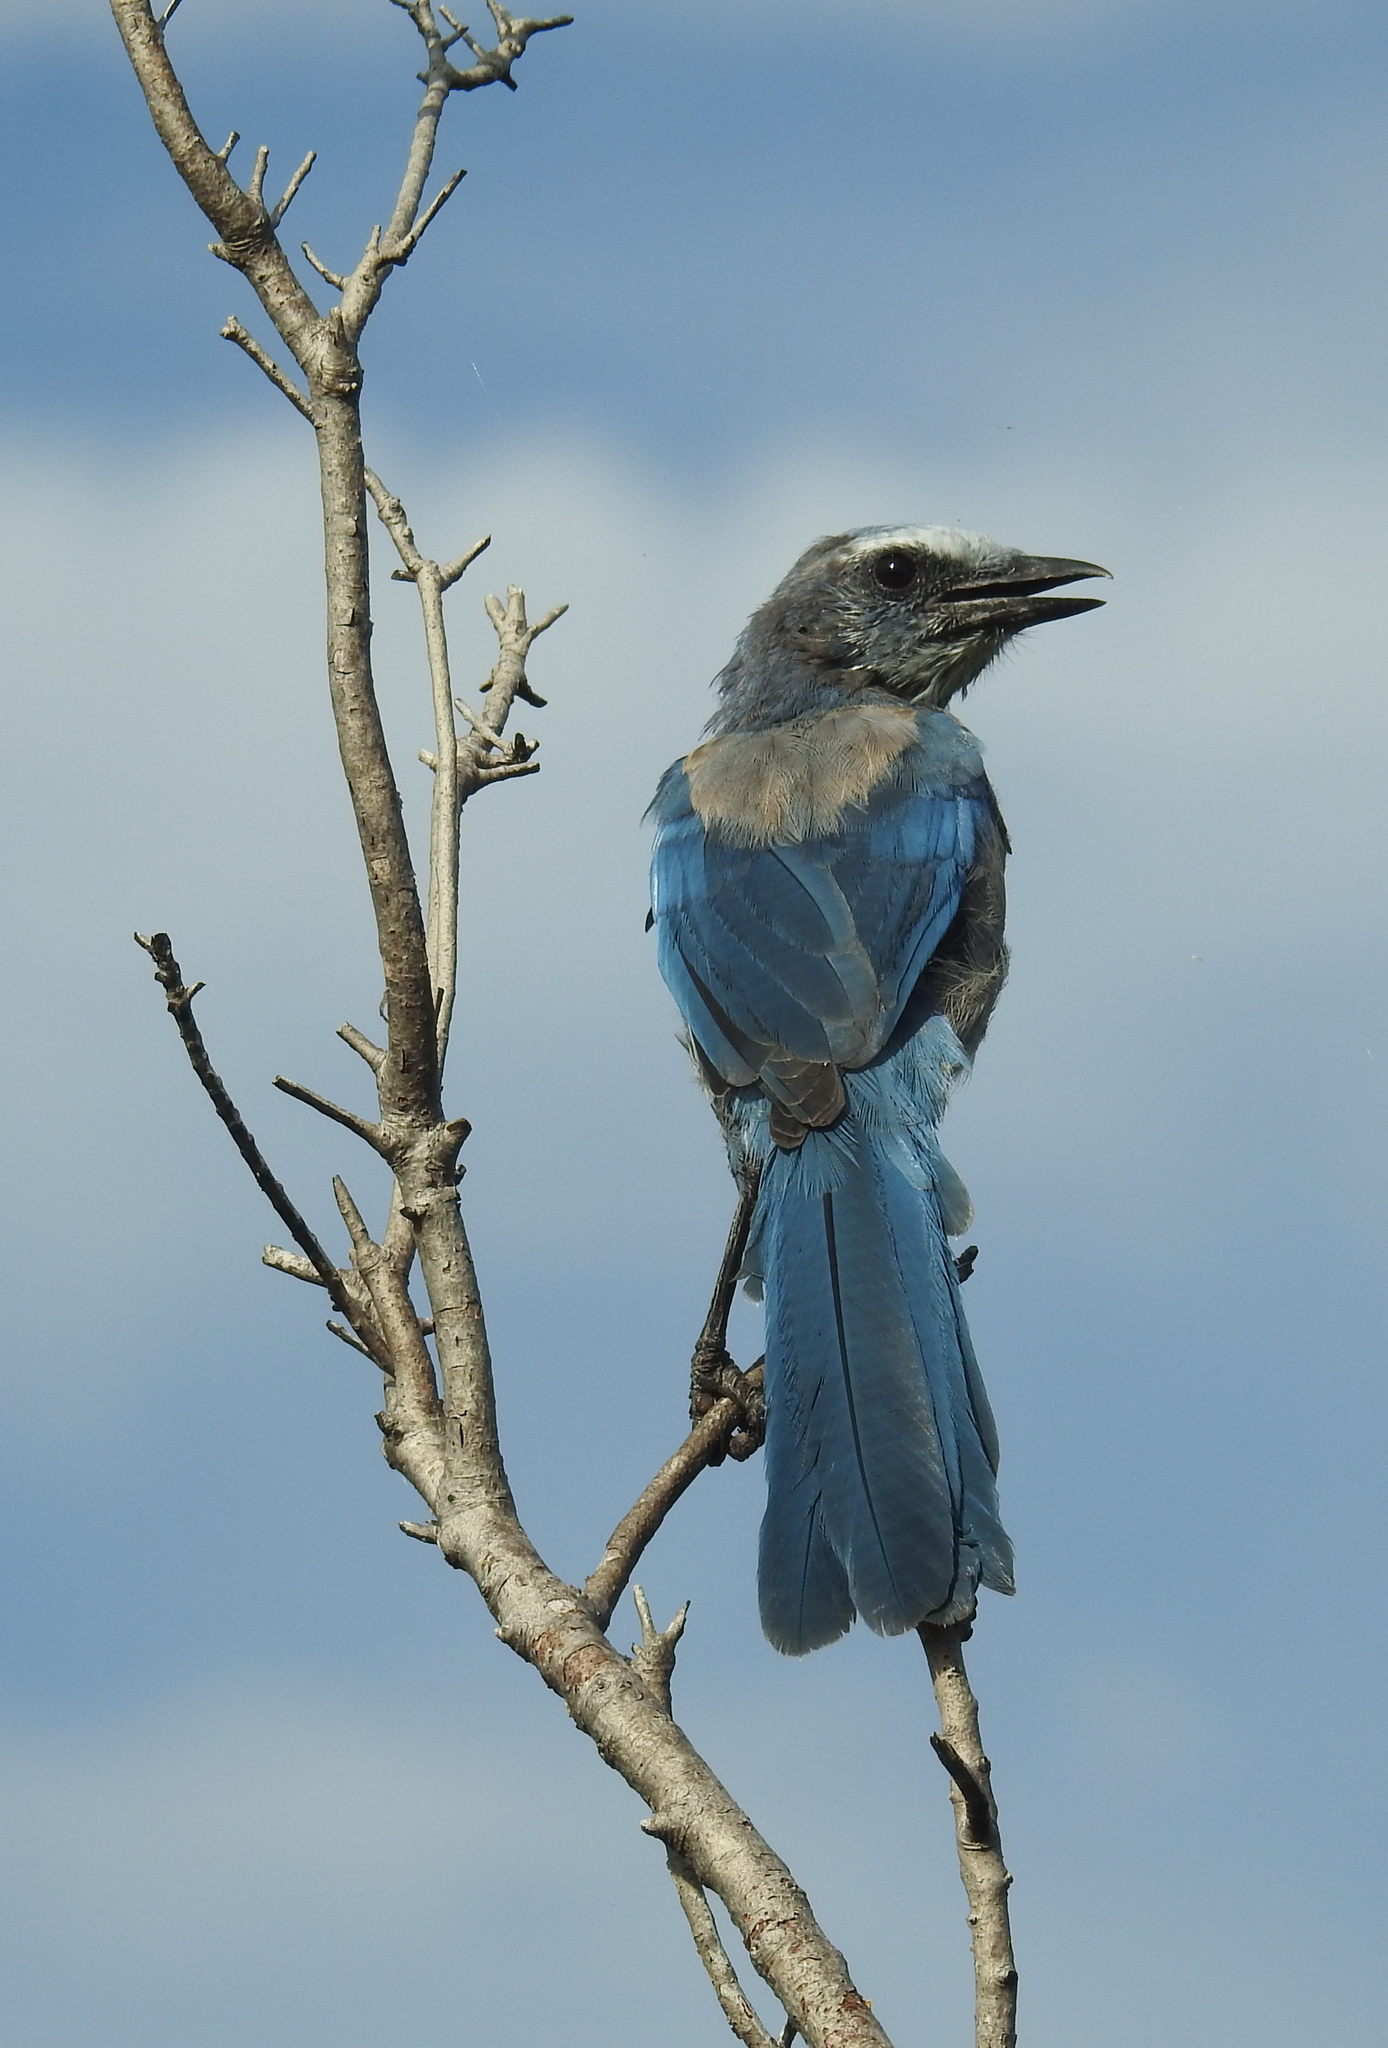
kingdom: Animalia
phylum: Chordata
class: Aves
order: Passeriformes
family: Corvidae
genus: Aphelocoma
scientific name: Aphelocoma coerulescens
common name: Florida scrub jay
